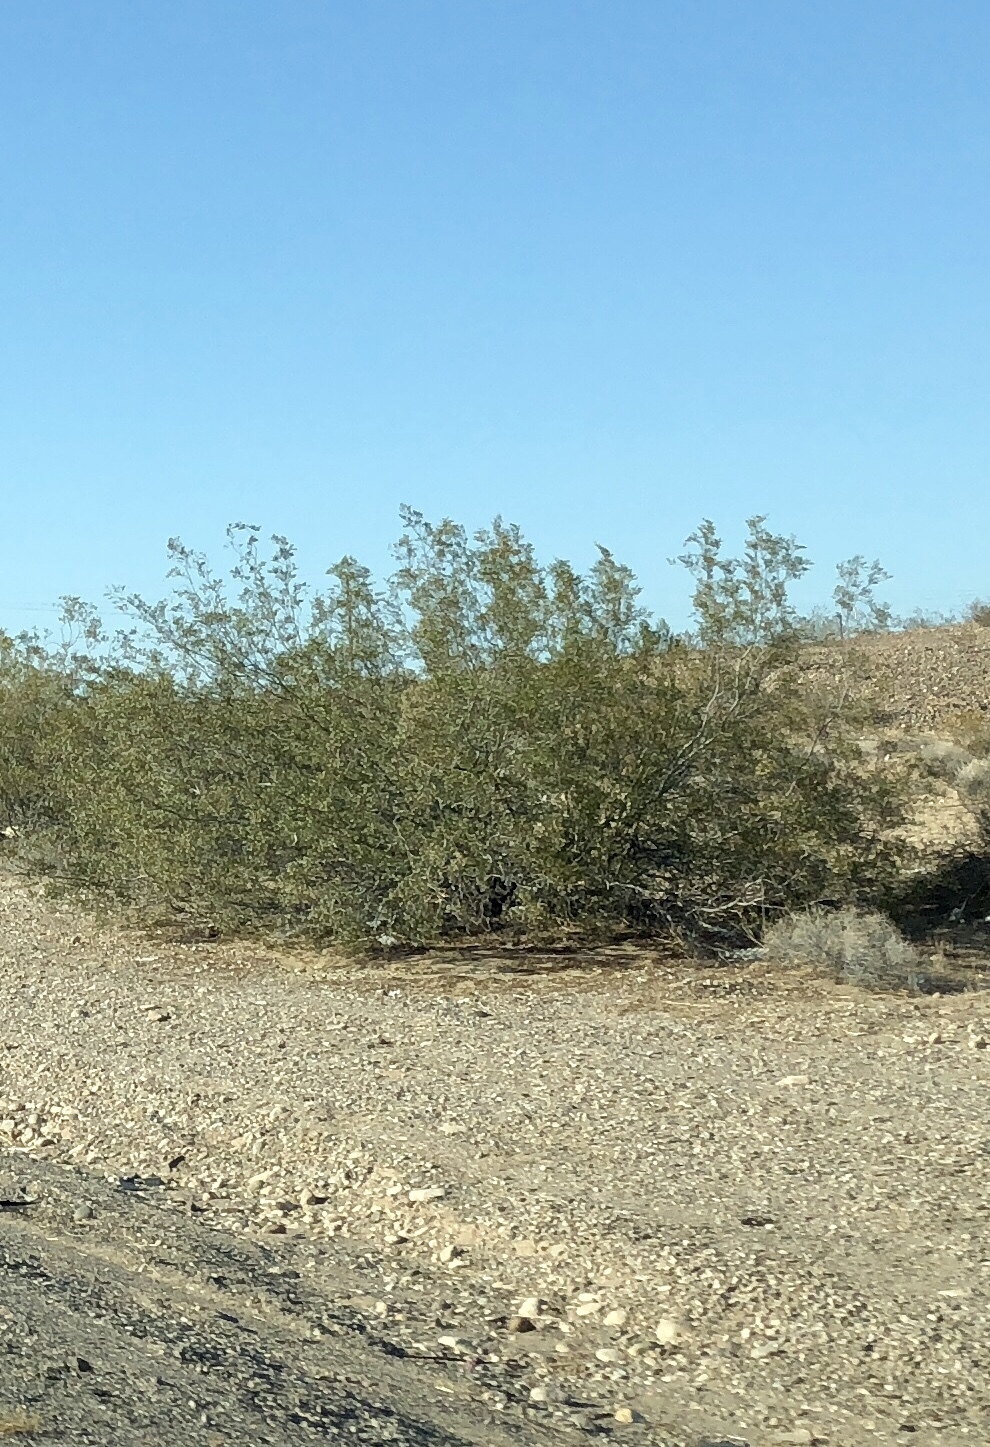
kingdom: Plantae
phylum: Tracheophyta
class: Magnoliopsida
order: Zygophyllales
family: Zygophyllaceae
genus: Larrea
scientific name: Larrea tridentata
